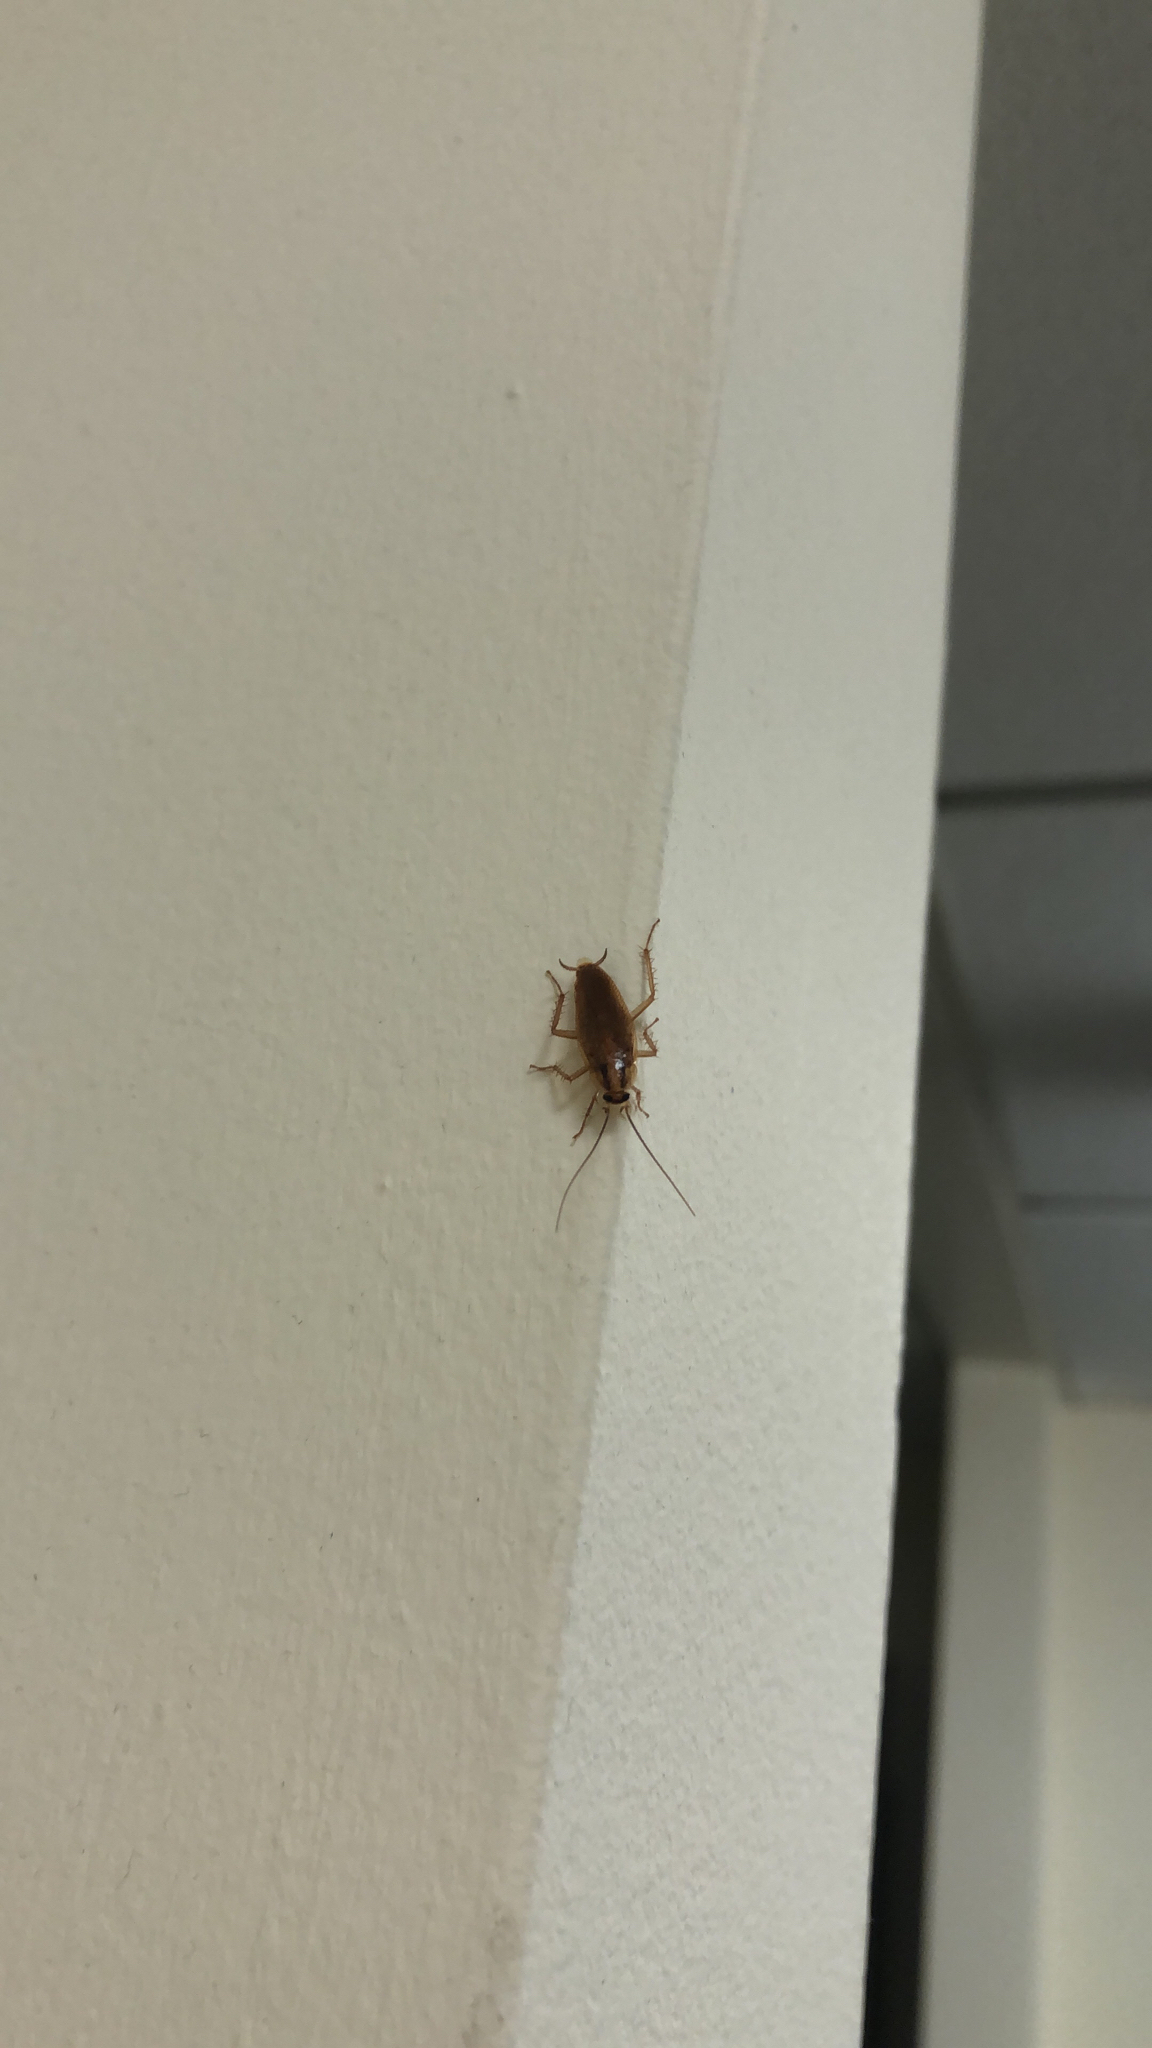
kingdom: Animalia
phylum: Arthropoda
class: Insecta
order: Blattodea
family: Ectobiidae
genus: Blattella
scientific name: Blattella germanica
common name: German cockroach
